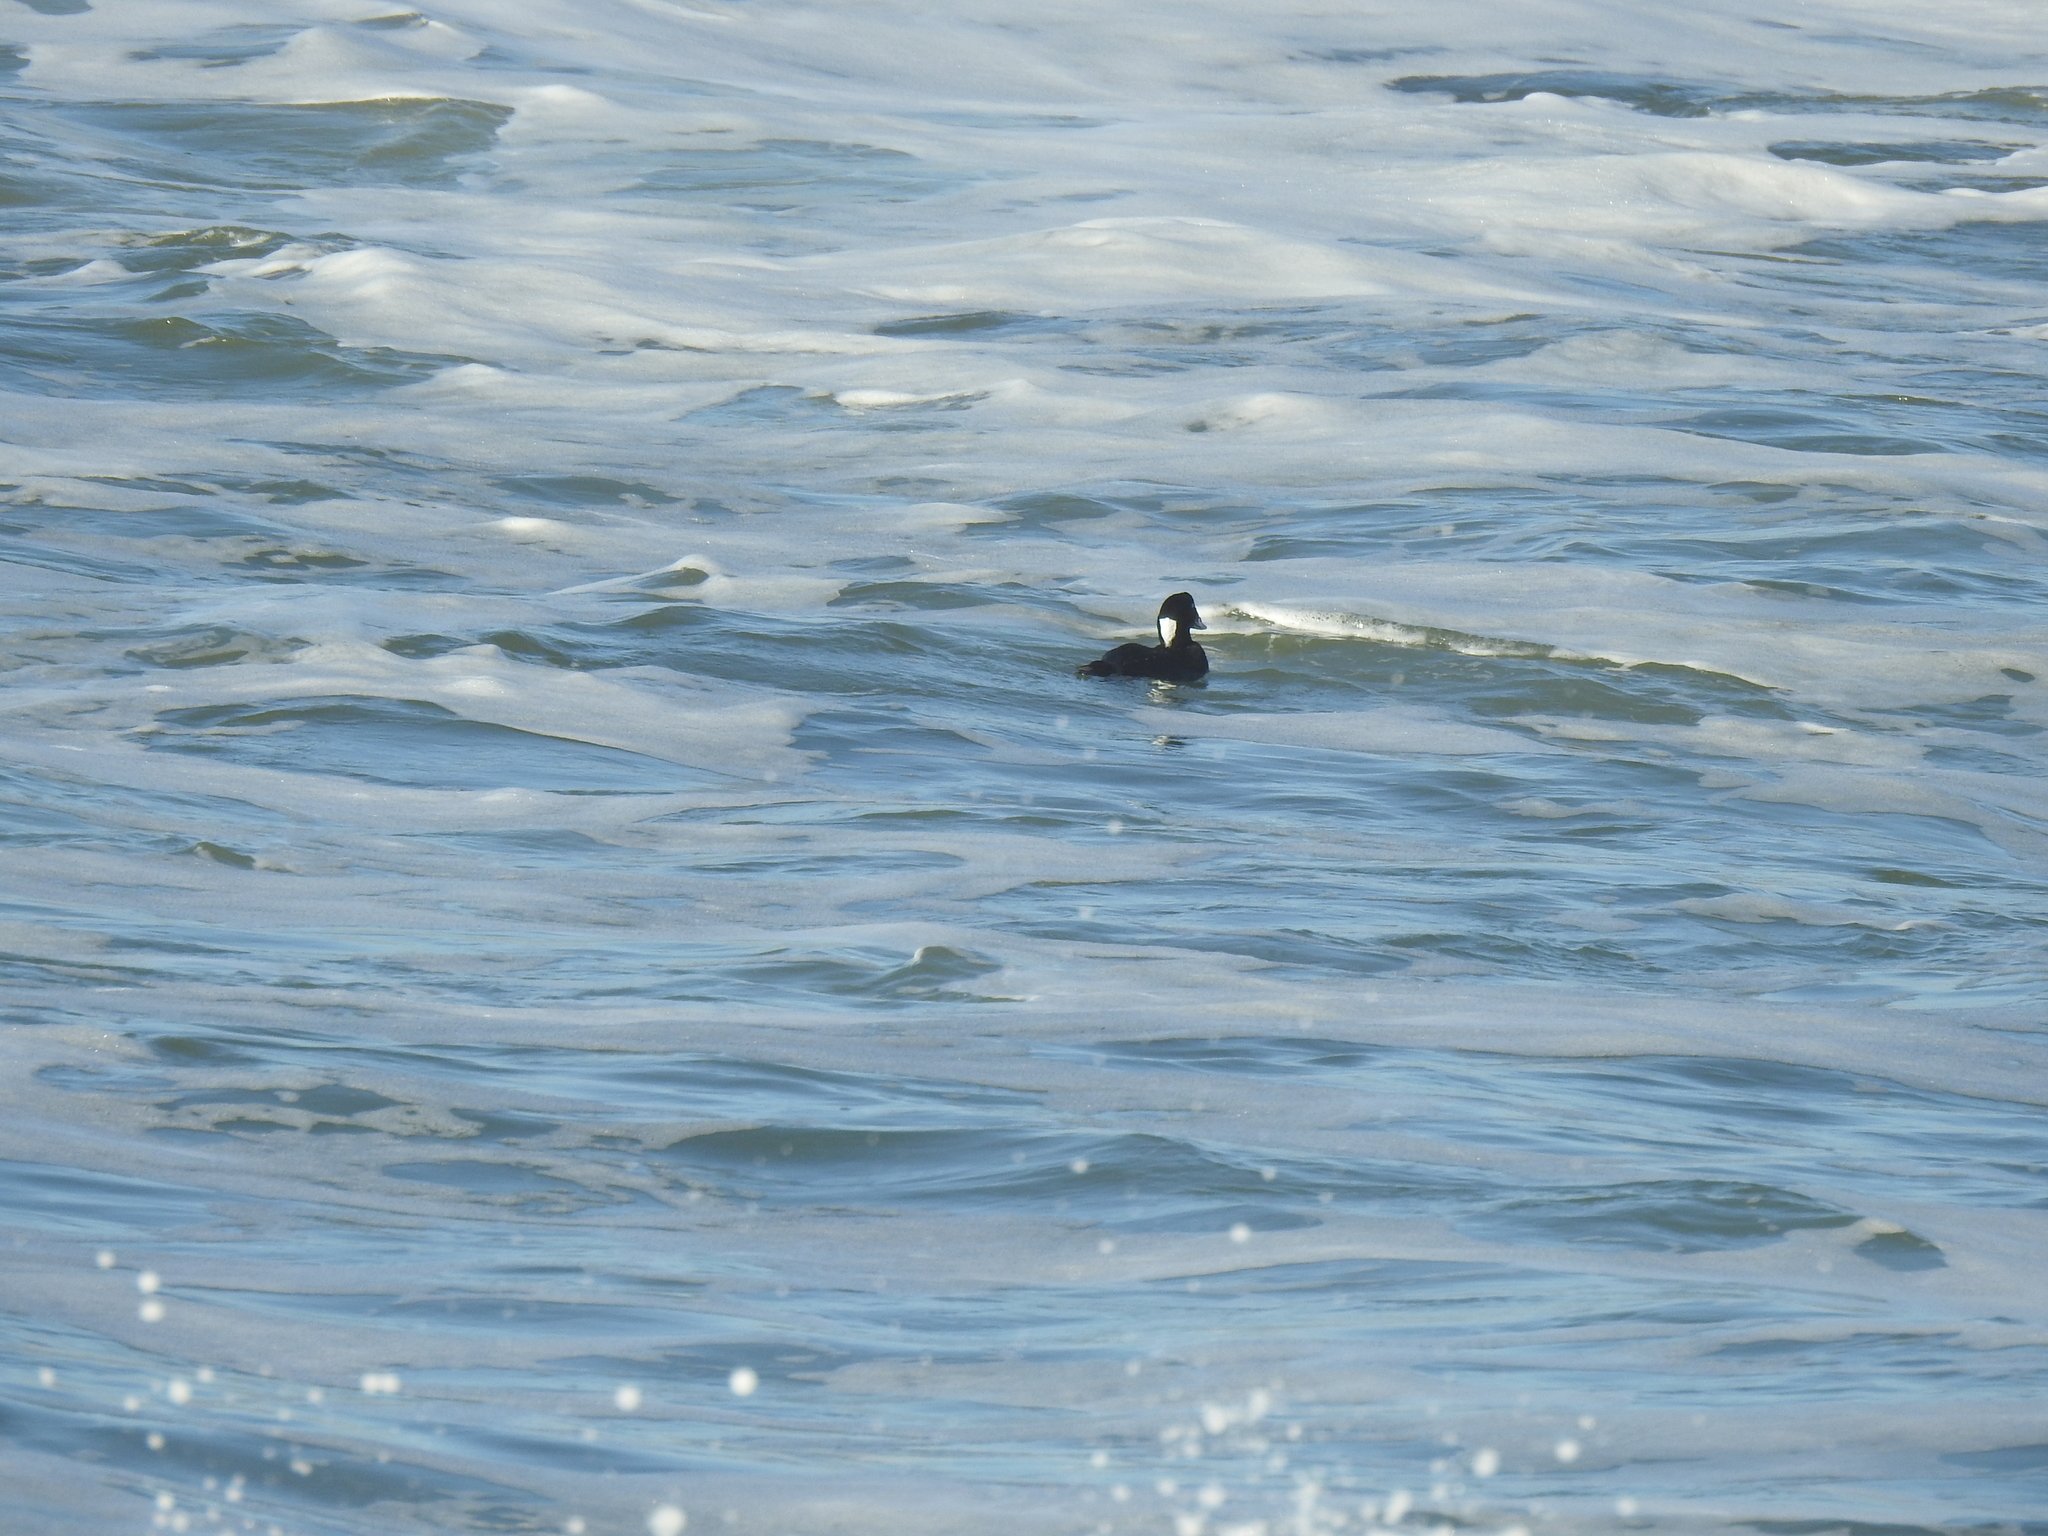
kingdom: Animalia
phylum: Chordata
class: Aves
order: Anseriformes
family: Anatidae
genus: Melanitta
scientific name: Melanitta perspicillata
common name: Surf scoter
